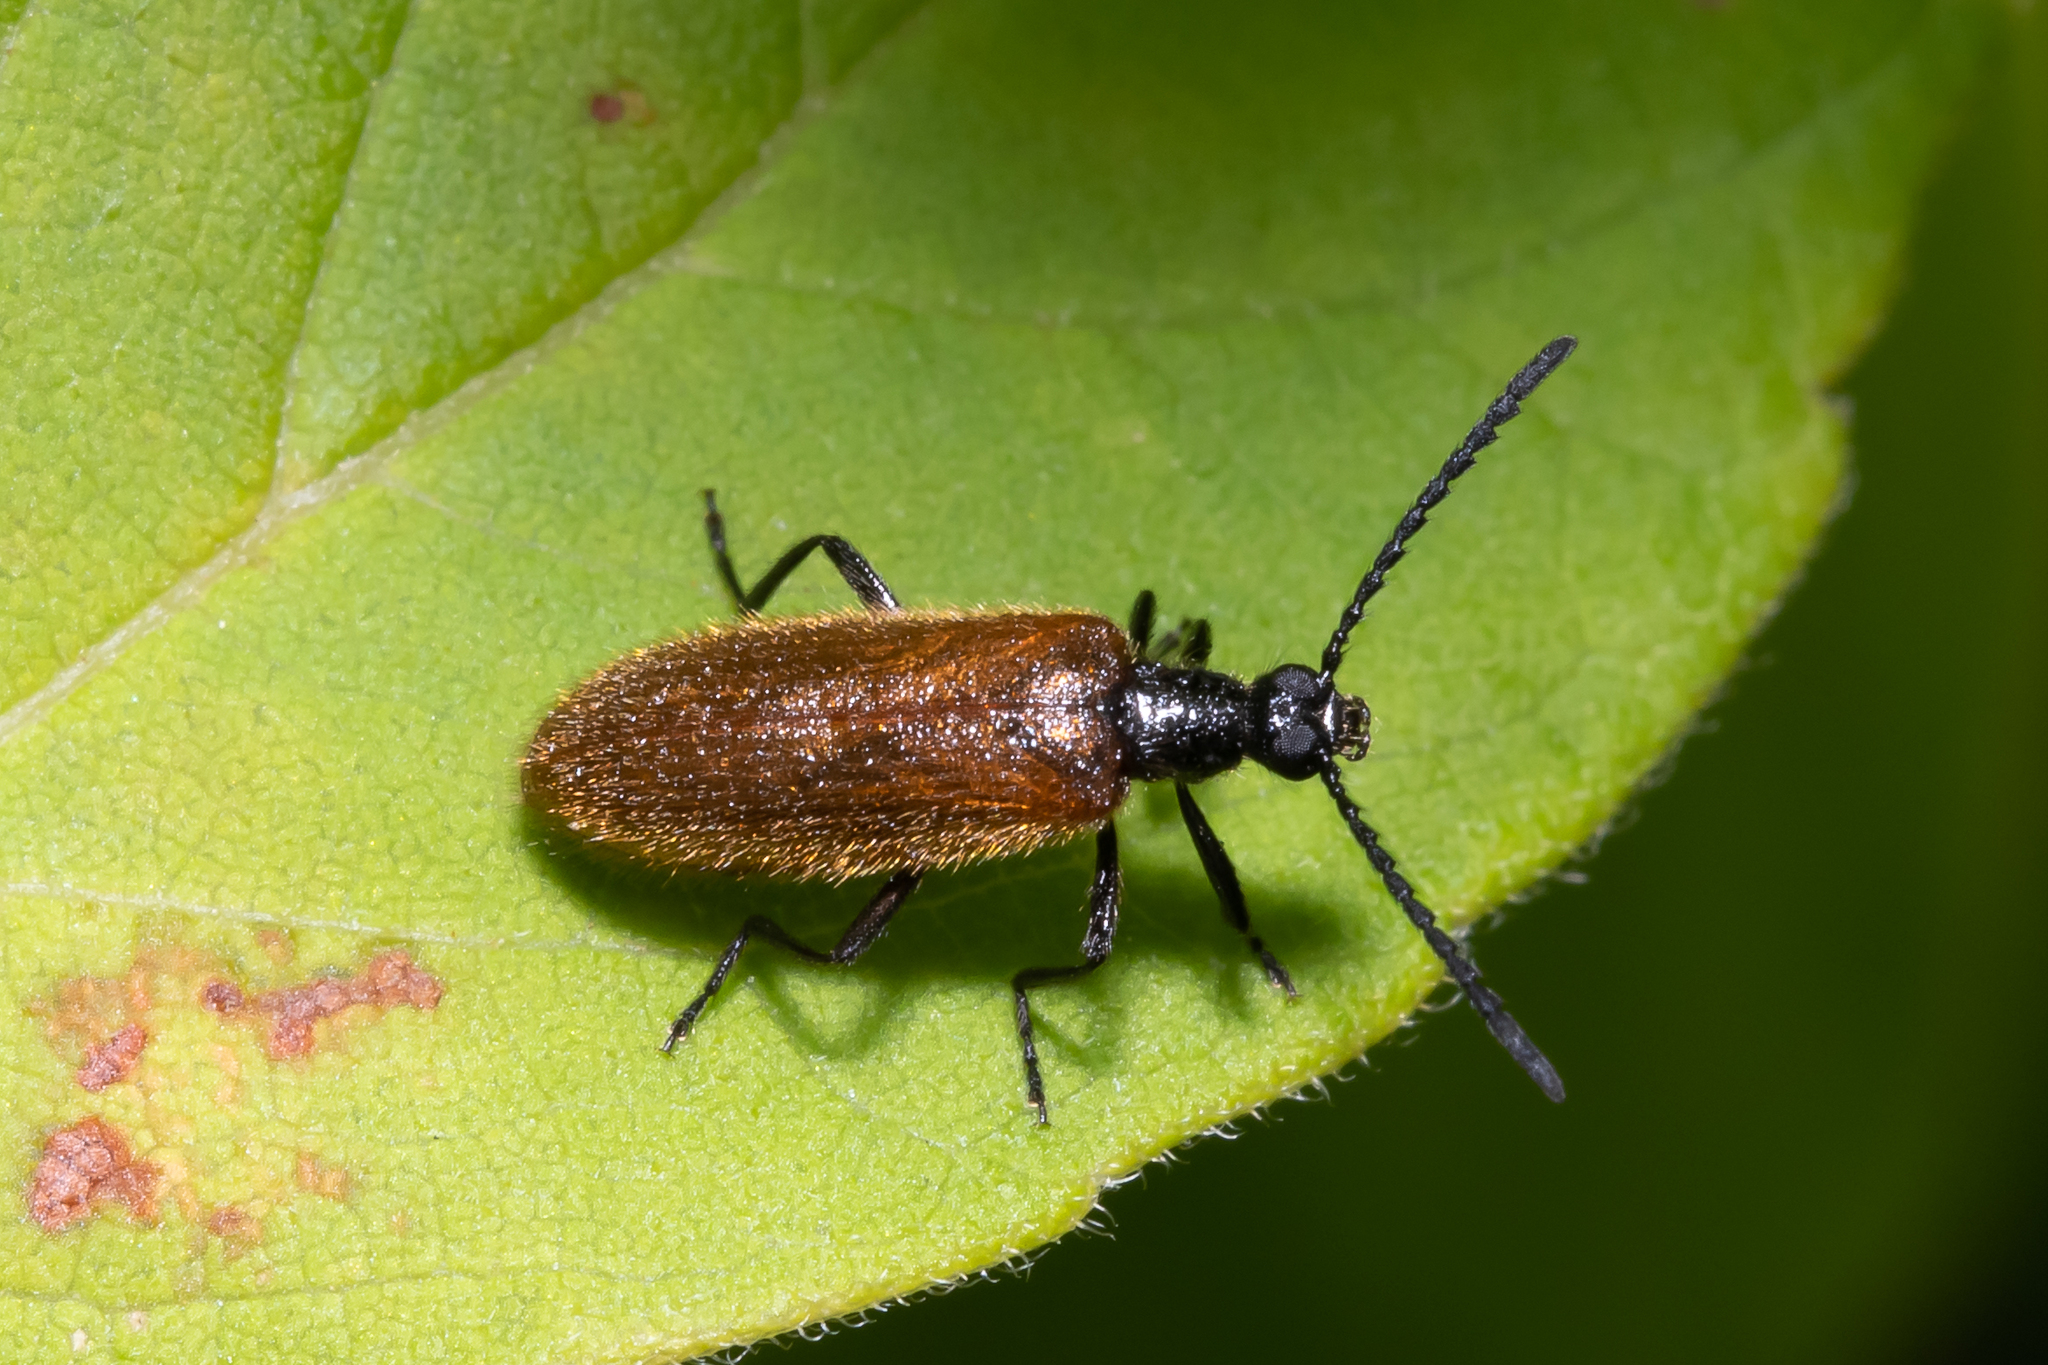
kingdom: Animalia
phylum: Arthropoda
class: Insecta
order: Coleoptera
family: Tenebrionidae
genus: Lagria
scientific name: Lagria hirta
